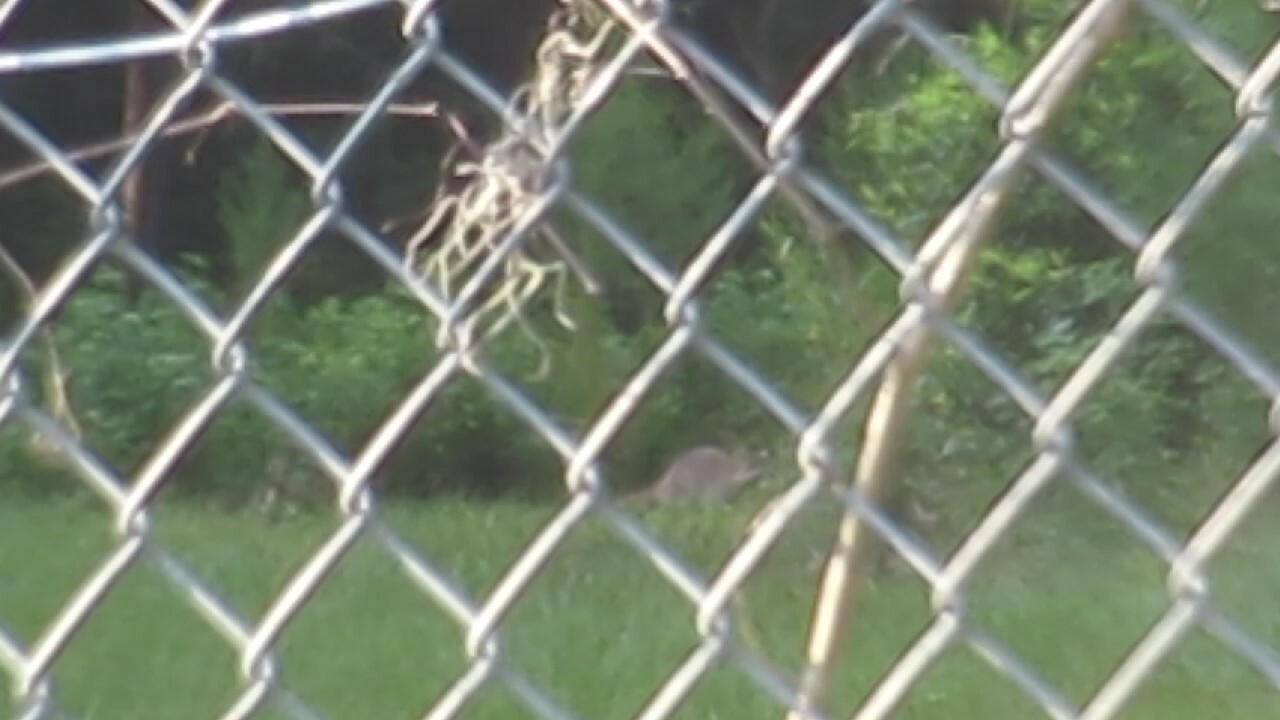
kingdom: Animalia
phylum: Chordata
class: Mammalia
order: Carnivora
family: Procyonidae
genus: Procyon
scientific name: Procyon lotor
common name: Raccoon
